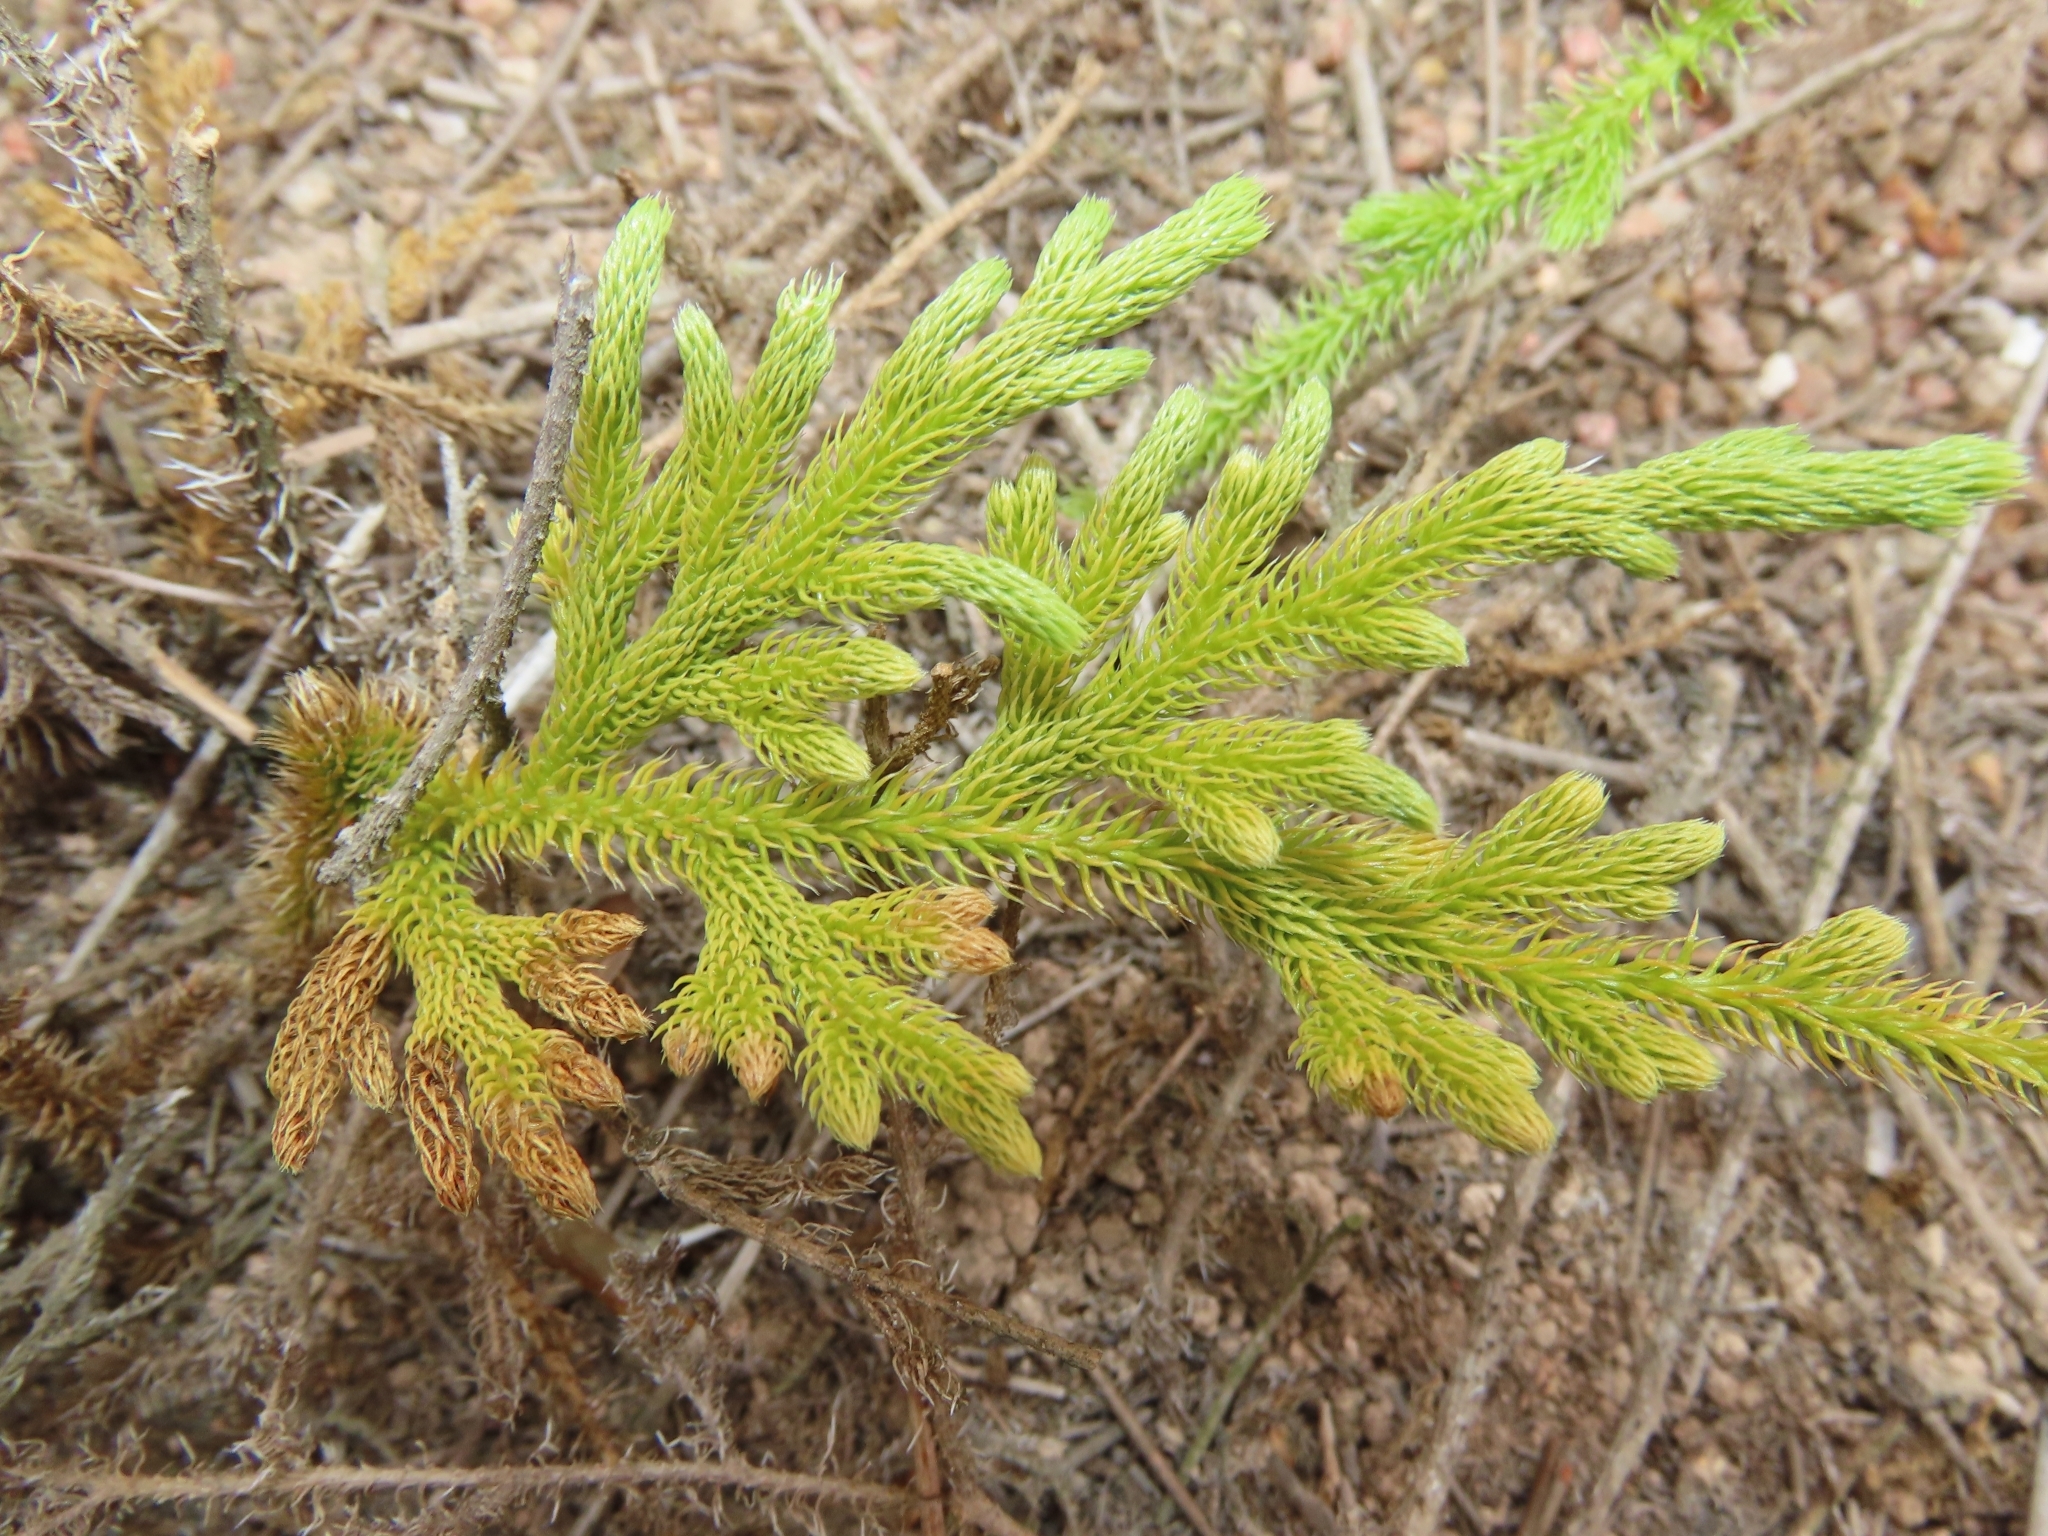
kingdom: Plantae
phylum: Tracheophyta
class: Lycopodiopsida
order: Lycopodiales
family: Lycopodiaceae
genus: Palhinhaea
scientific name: Palhinhaea cernua
